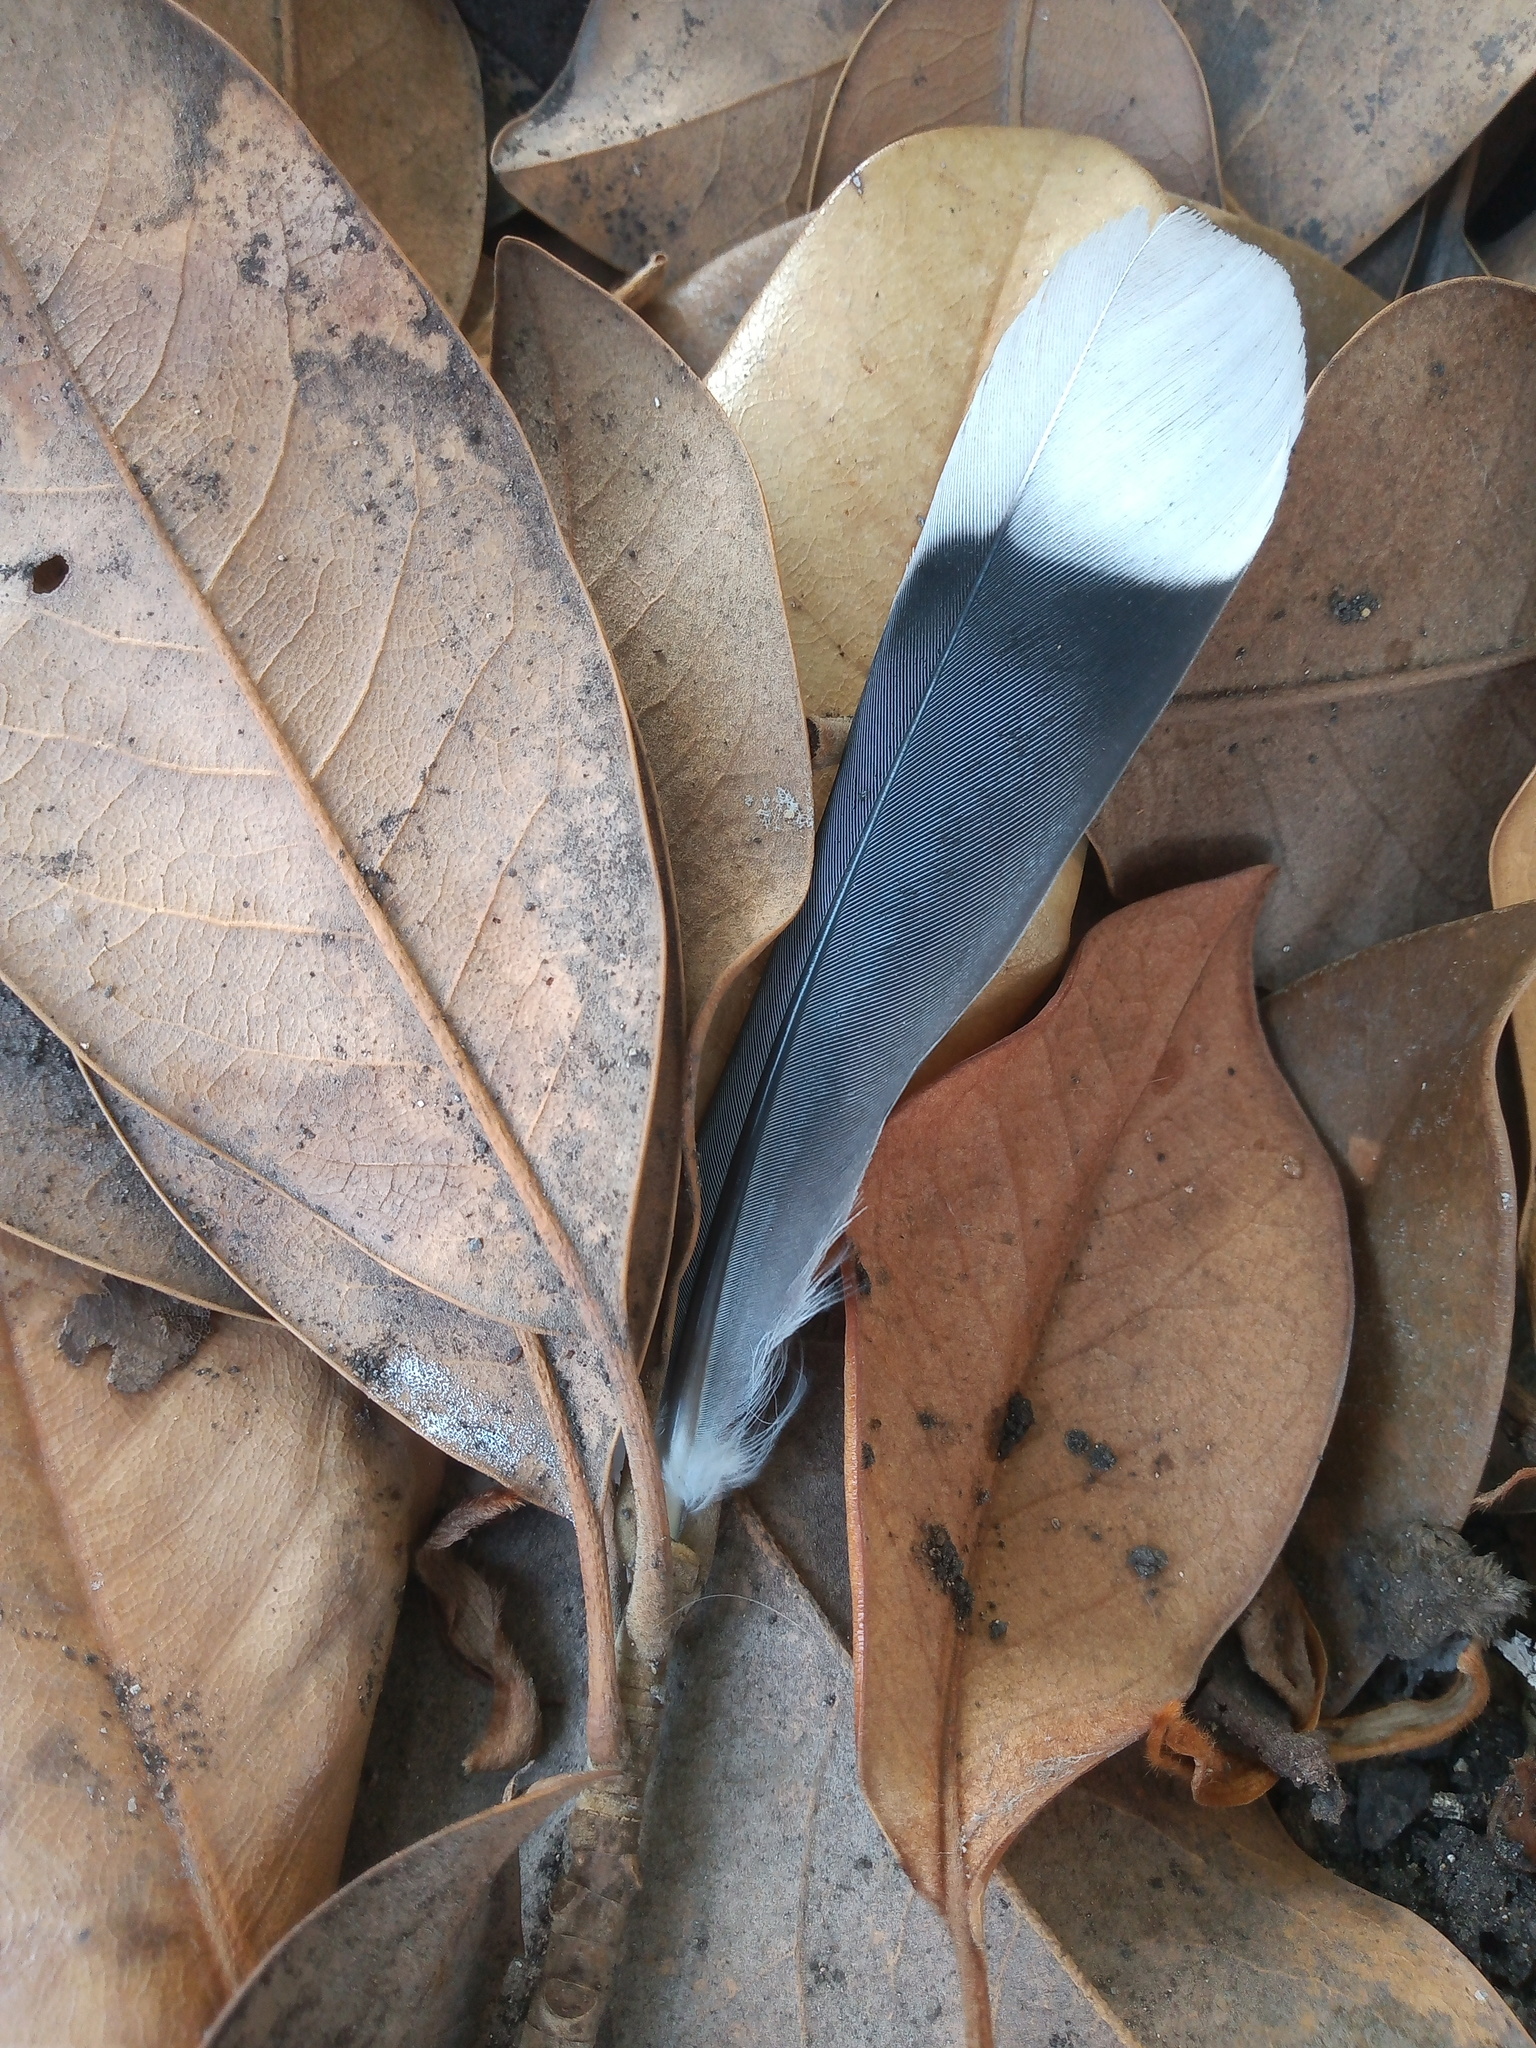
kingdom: Animalia
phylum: Chordata
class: Aves
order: Columbiformes
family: Columbidae
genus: Zenaida
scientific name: Zenaida asiatica
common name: White-winged dove
